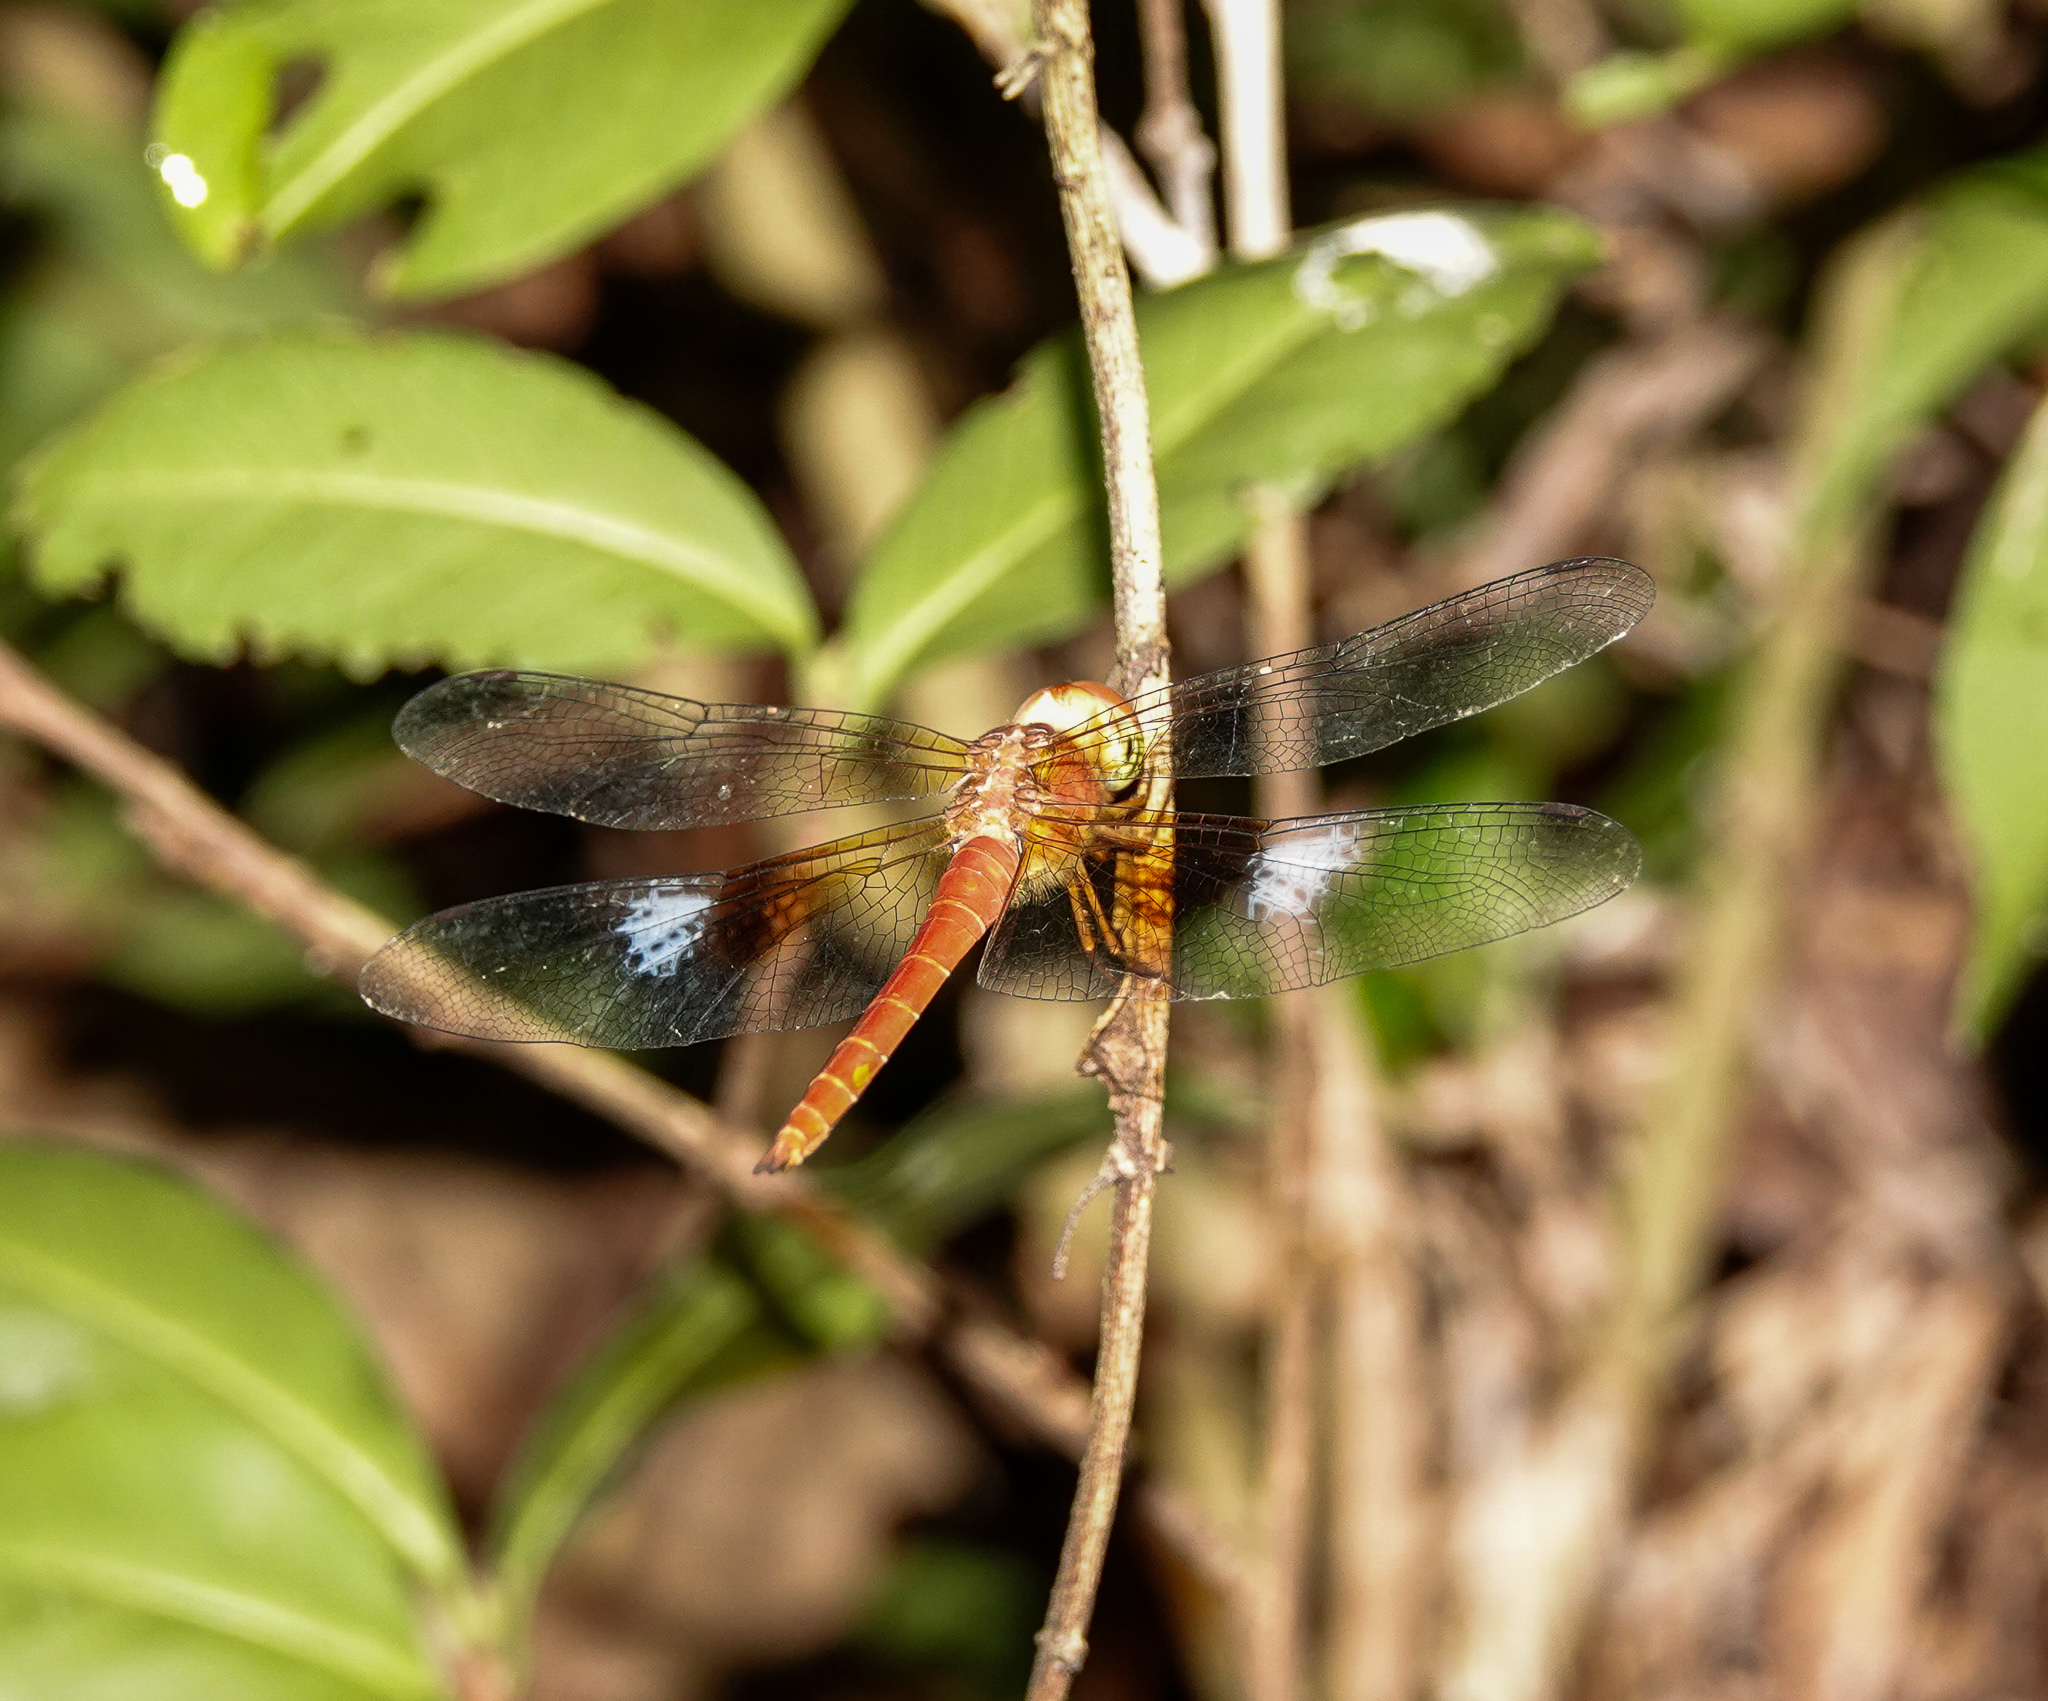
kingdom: Animalia
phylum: Arthropoda
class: Insecta
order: Odonata
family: Libellulidae
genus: Tholymis
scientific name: Tholymis tillarga
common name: Coral-tailed cloud wing
